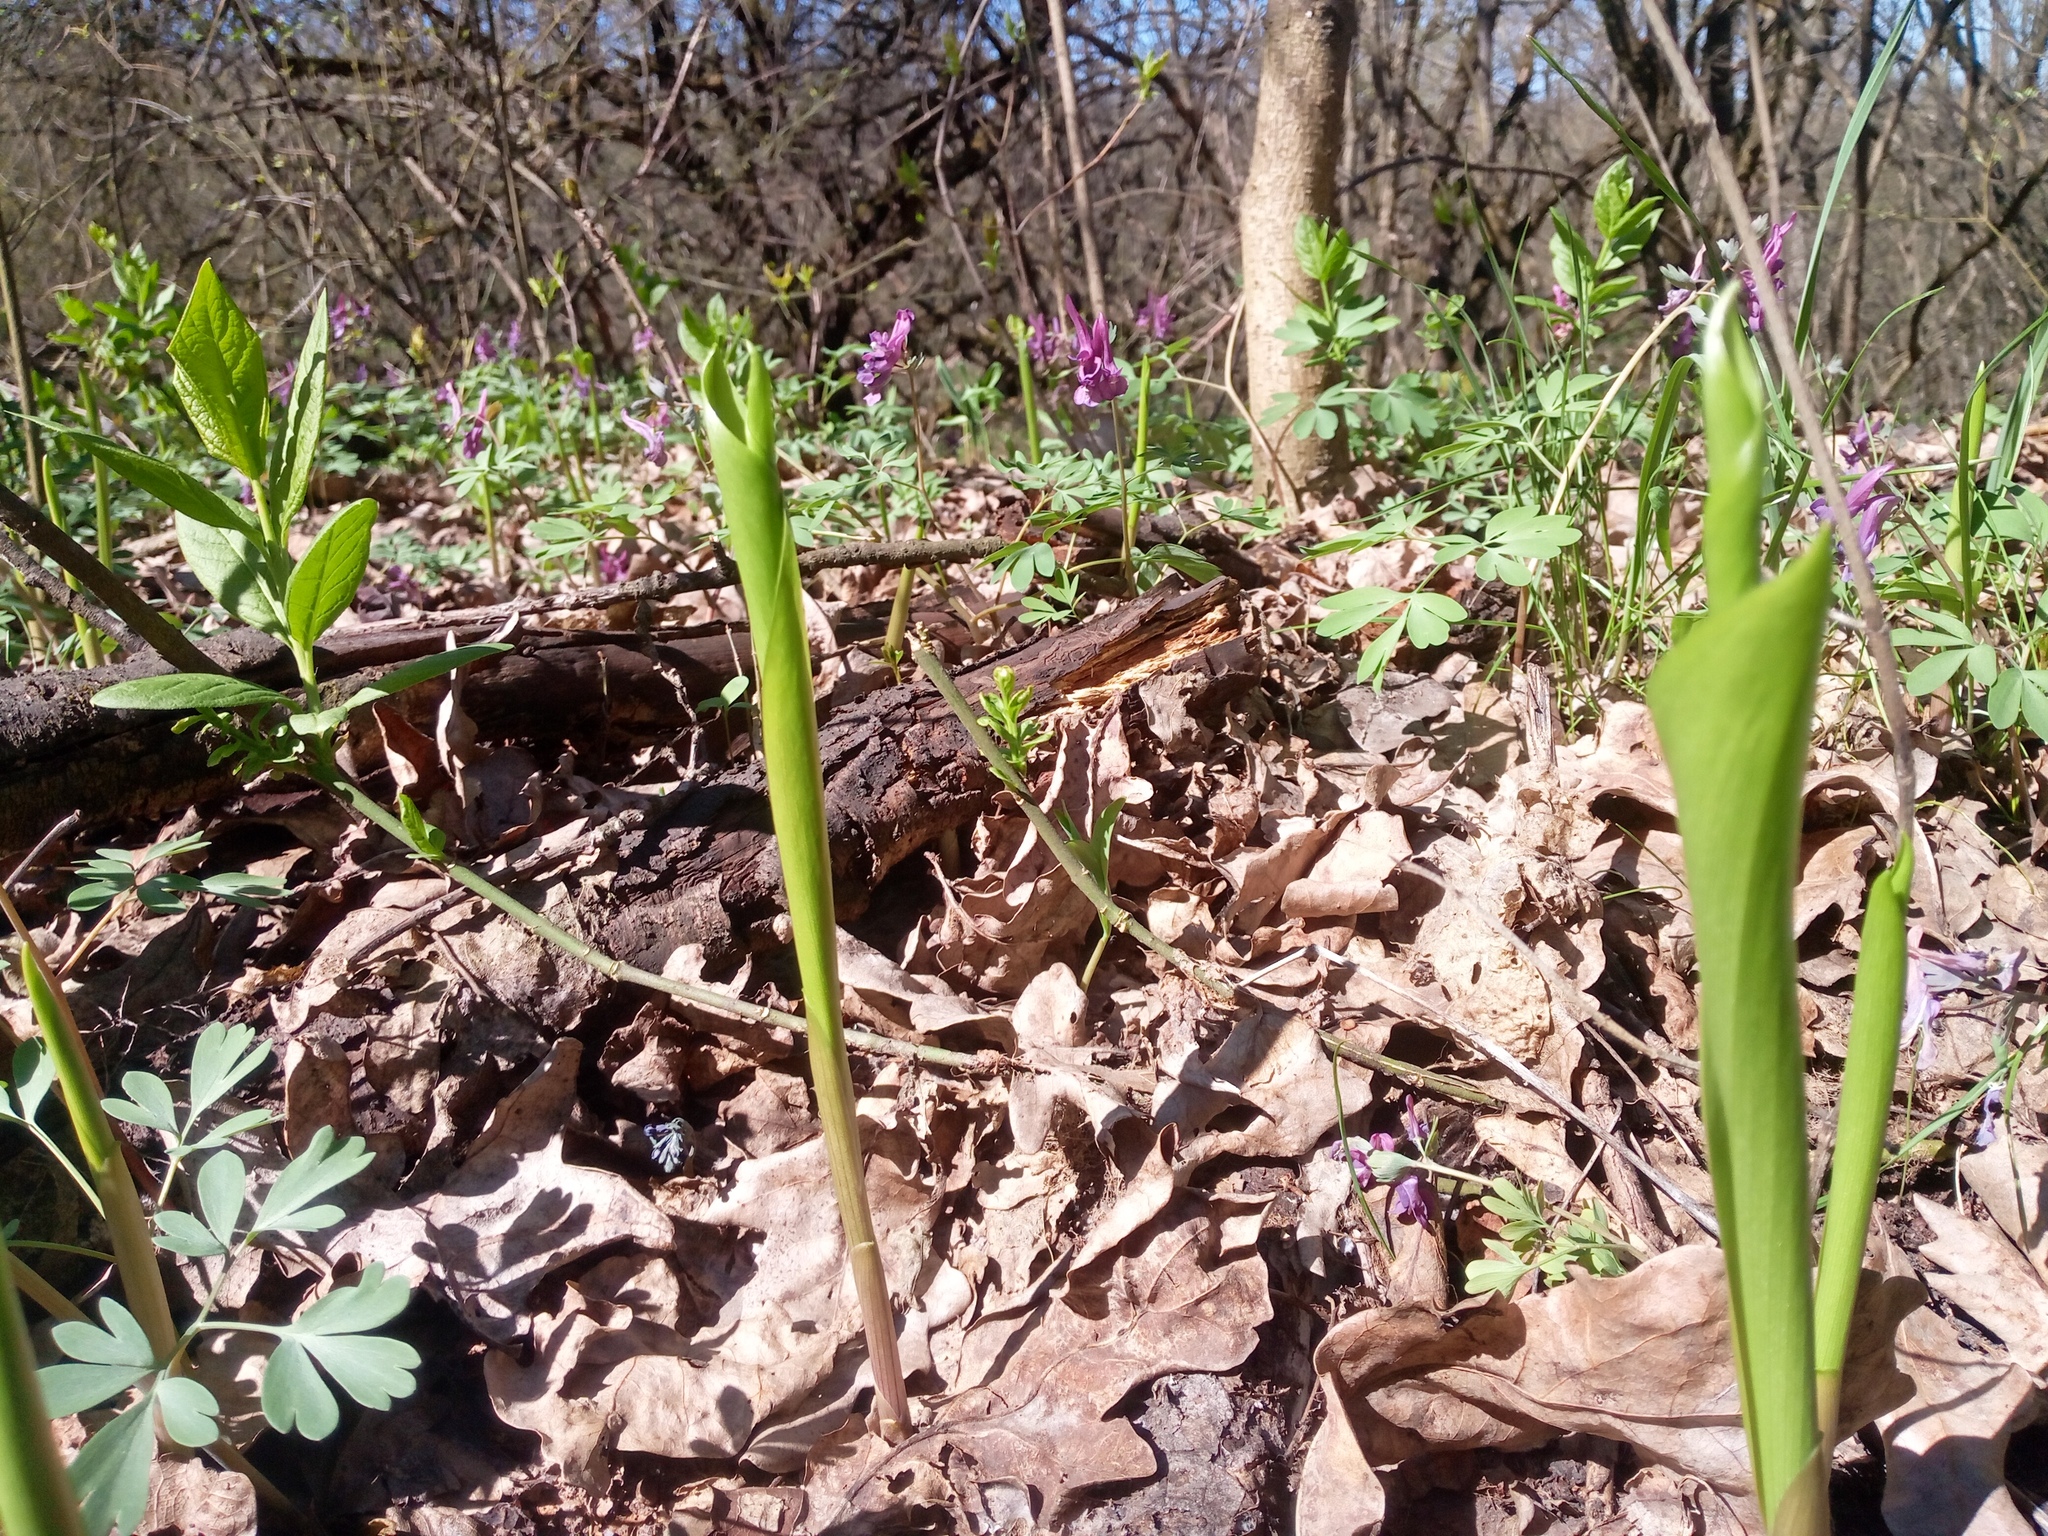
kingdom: Plantae
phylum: Tracheophyta
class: Liliopsida
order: Asparagales
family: Asparagaceae
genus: Convallaria
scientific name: Convallaria majalis
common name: Lily-of-the-valley
